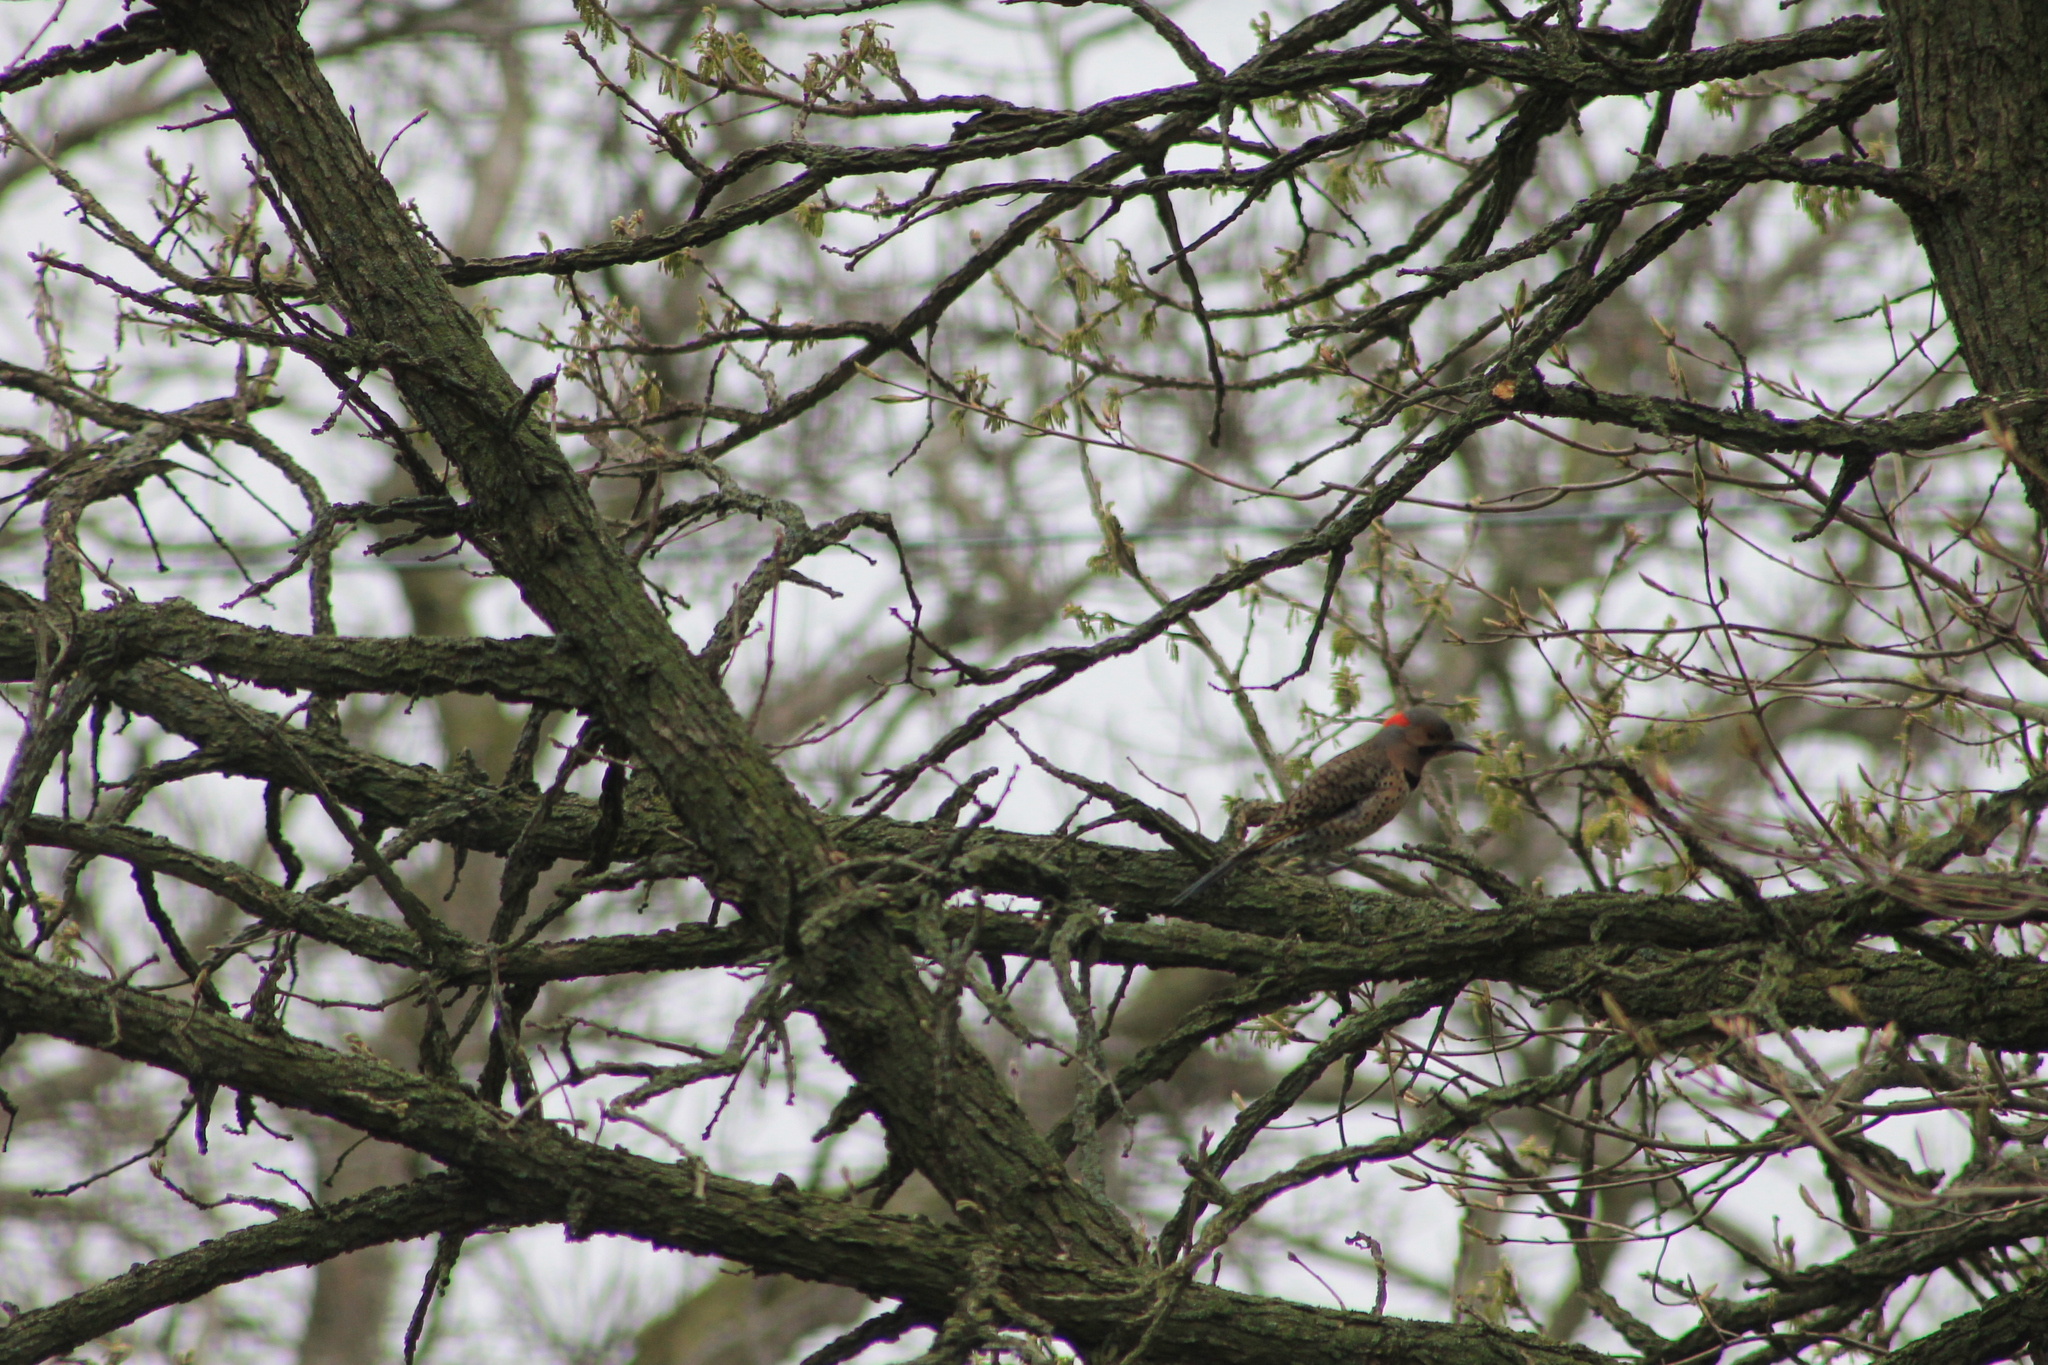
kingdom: Animalia
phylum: Chordata
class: Aves
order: Piciformes
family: Picidae
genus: Colaptes
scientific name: Colaptes auratus
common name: Northern flicker
